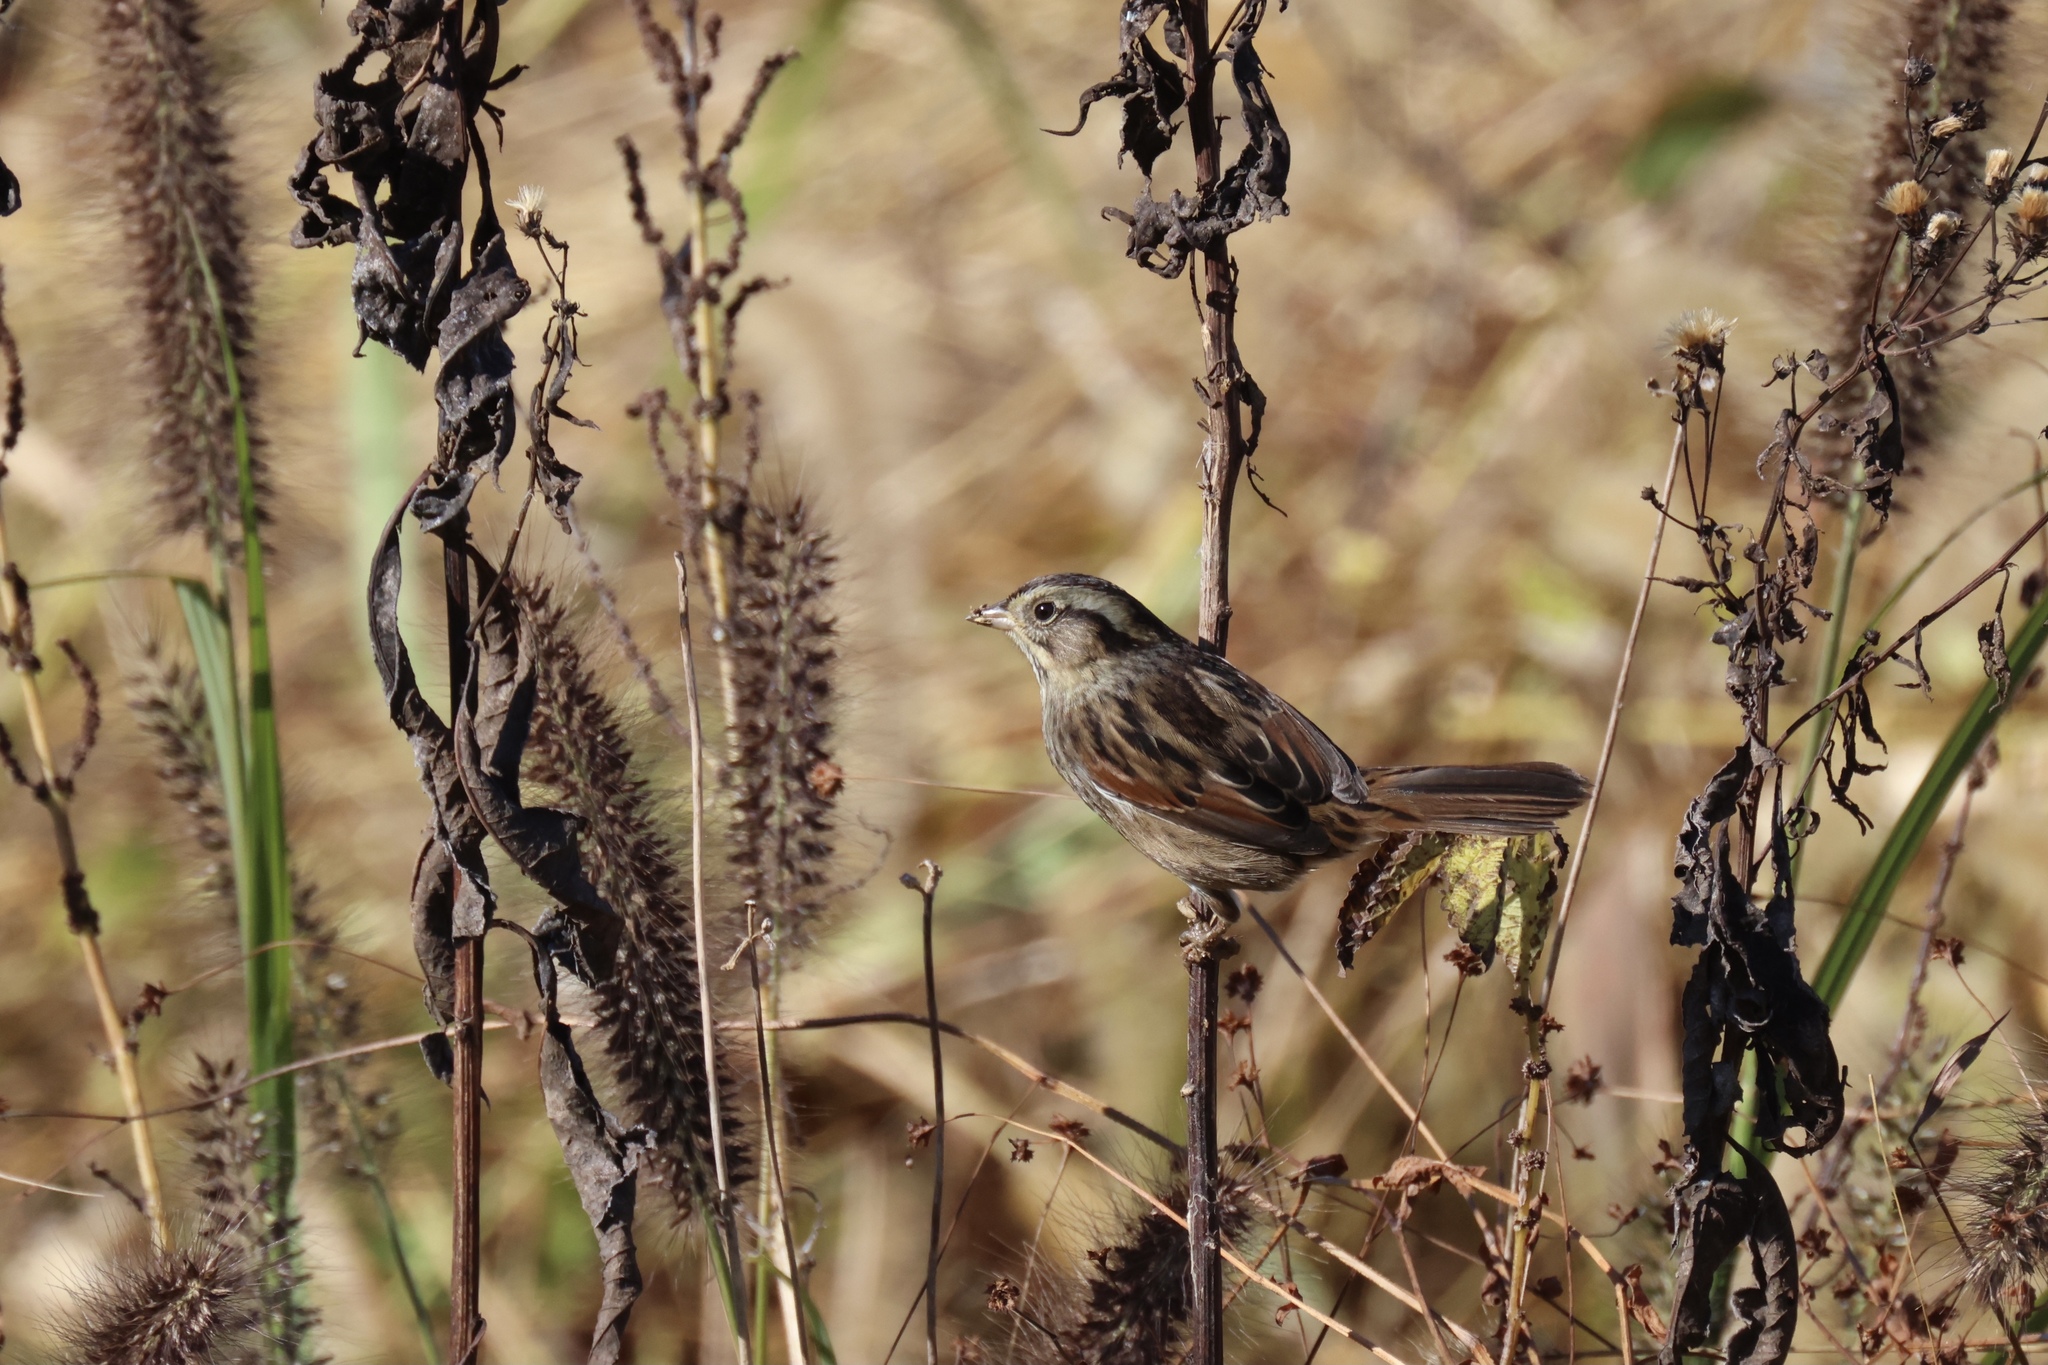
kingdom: Animalia
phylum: Chordata
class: Aves
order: Passeriformes
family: Passerellidae
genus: Melospiza
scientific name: Melospiza georgiana
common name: Swamp sparrow
